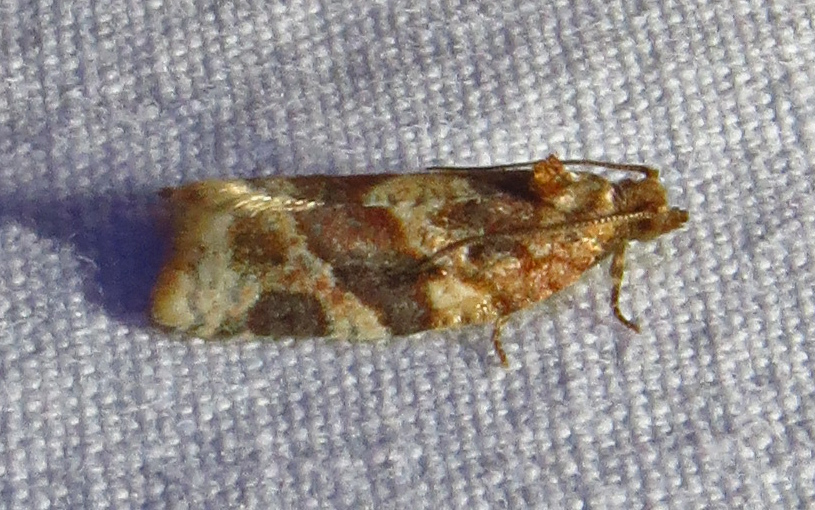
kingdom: Animalia
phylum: Arthropoda
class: Insecta
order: Lepidoptera
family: Tortricidae
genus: Argyrotaenia
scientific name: Argyrotaenia velutinana
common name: Red-banded leafroller moth
